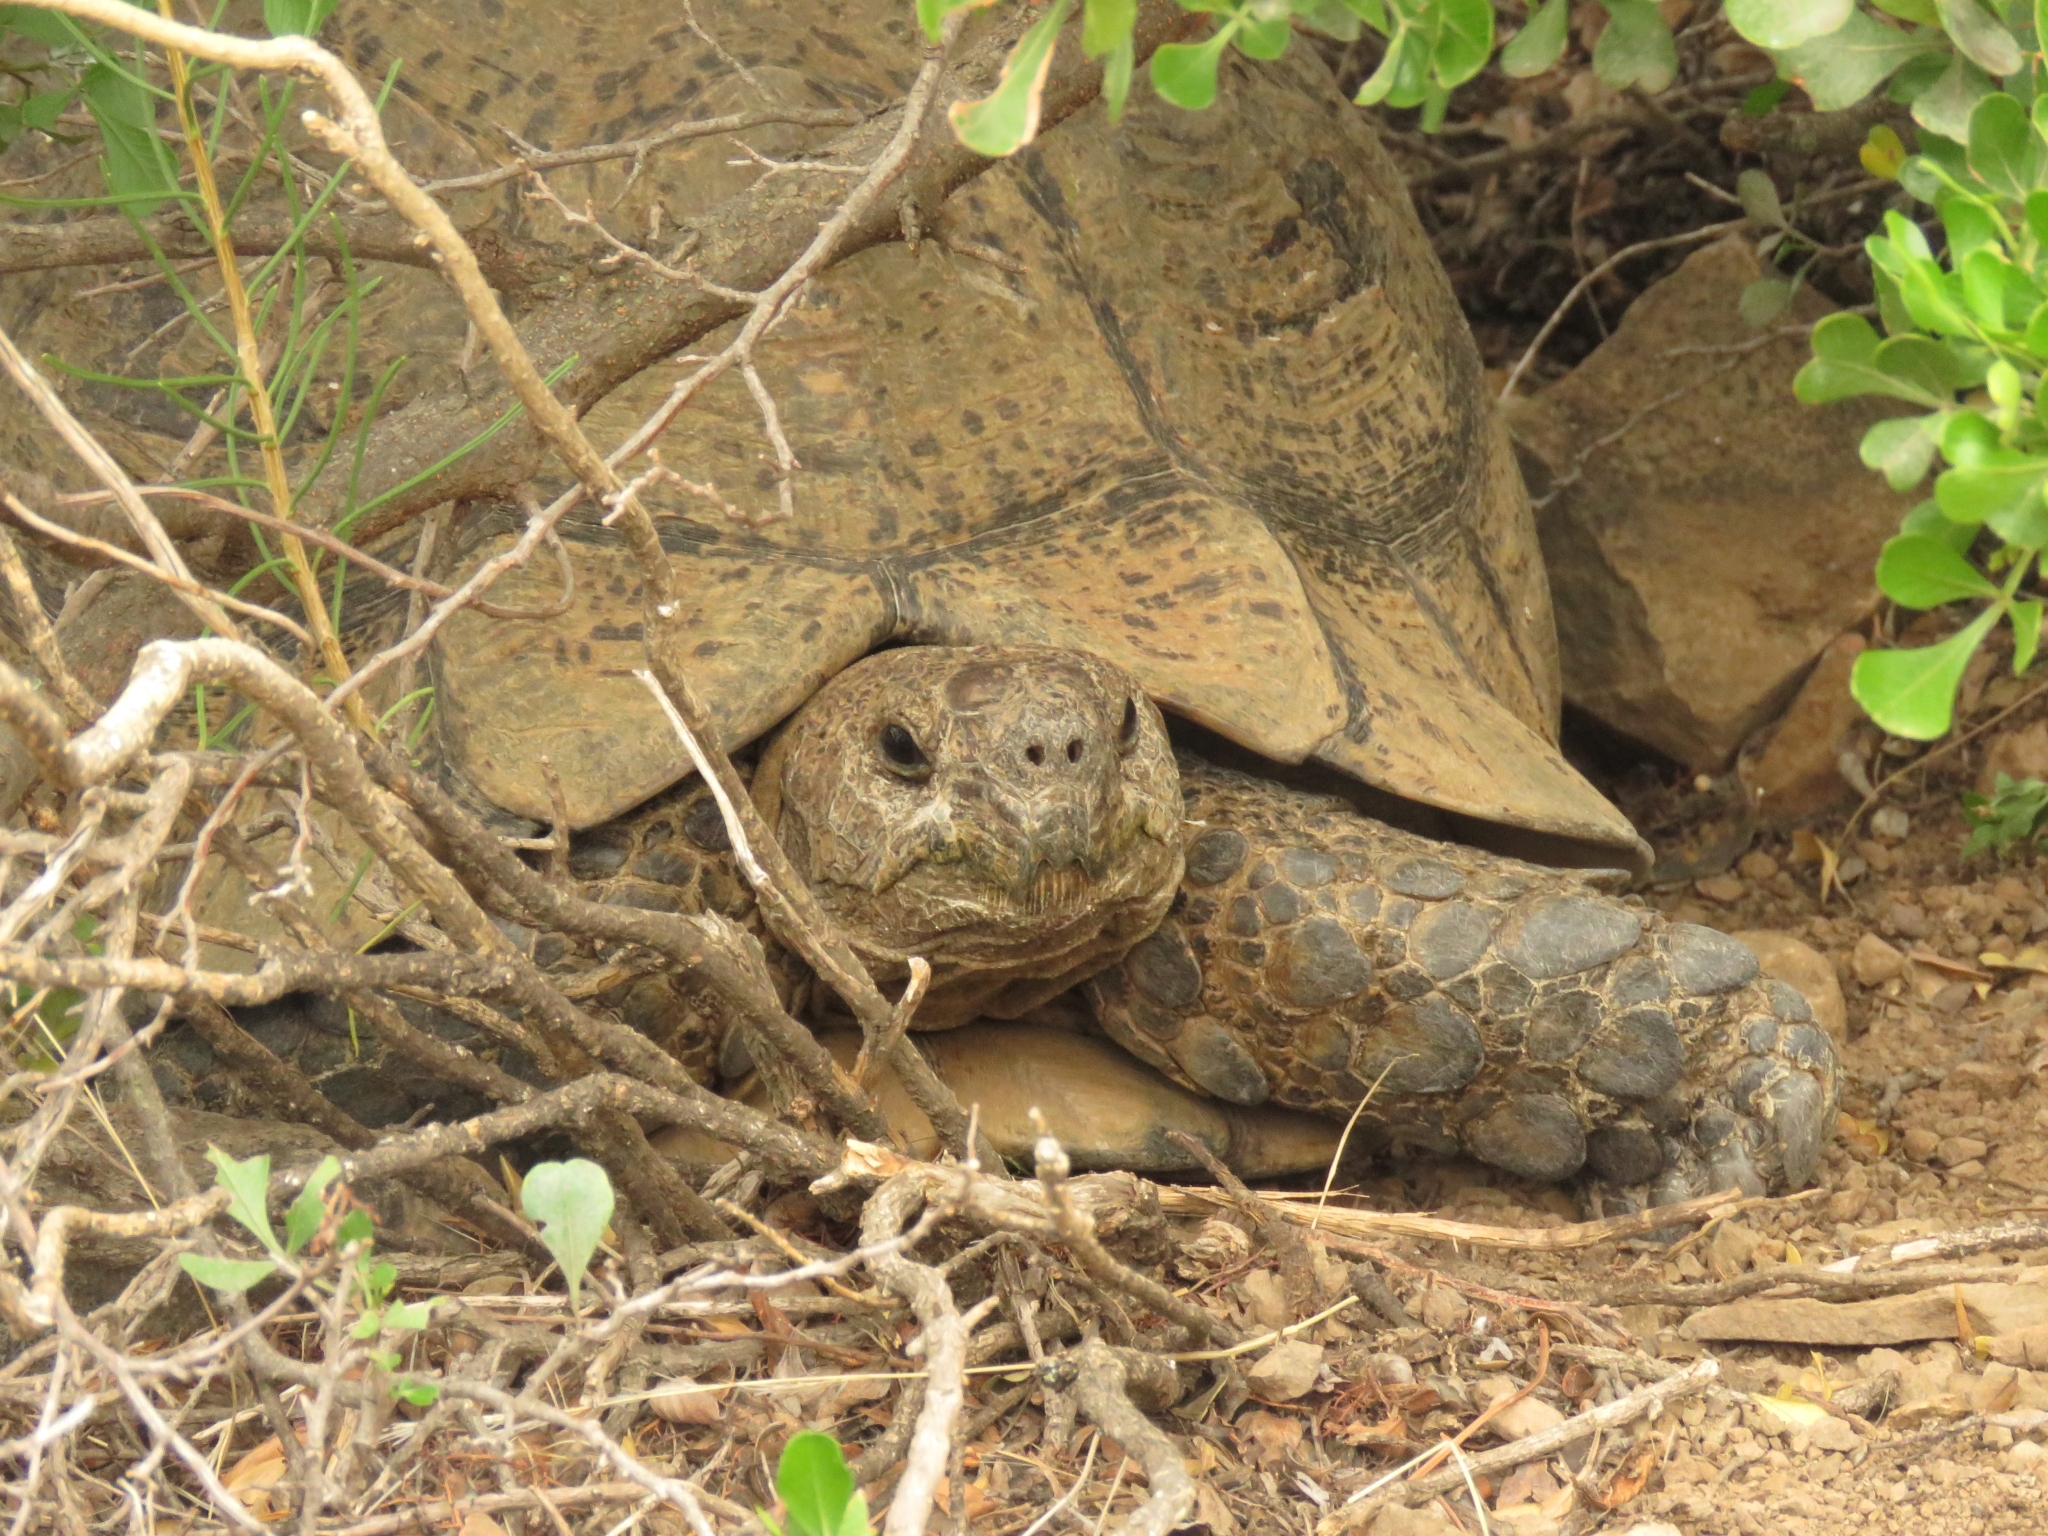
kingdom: Animalia
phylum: Chordata
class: Testudines
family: Testudinidae
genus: Stigmochelys
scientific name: Stigmochelys pardalis
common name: Leopard tortoise
